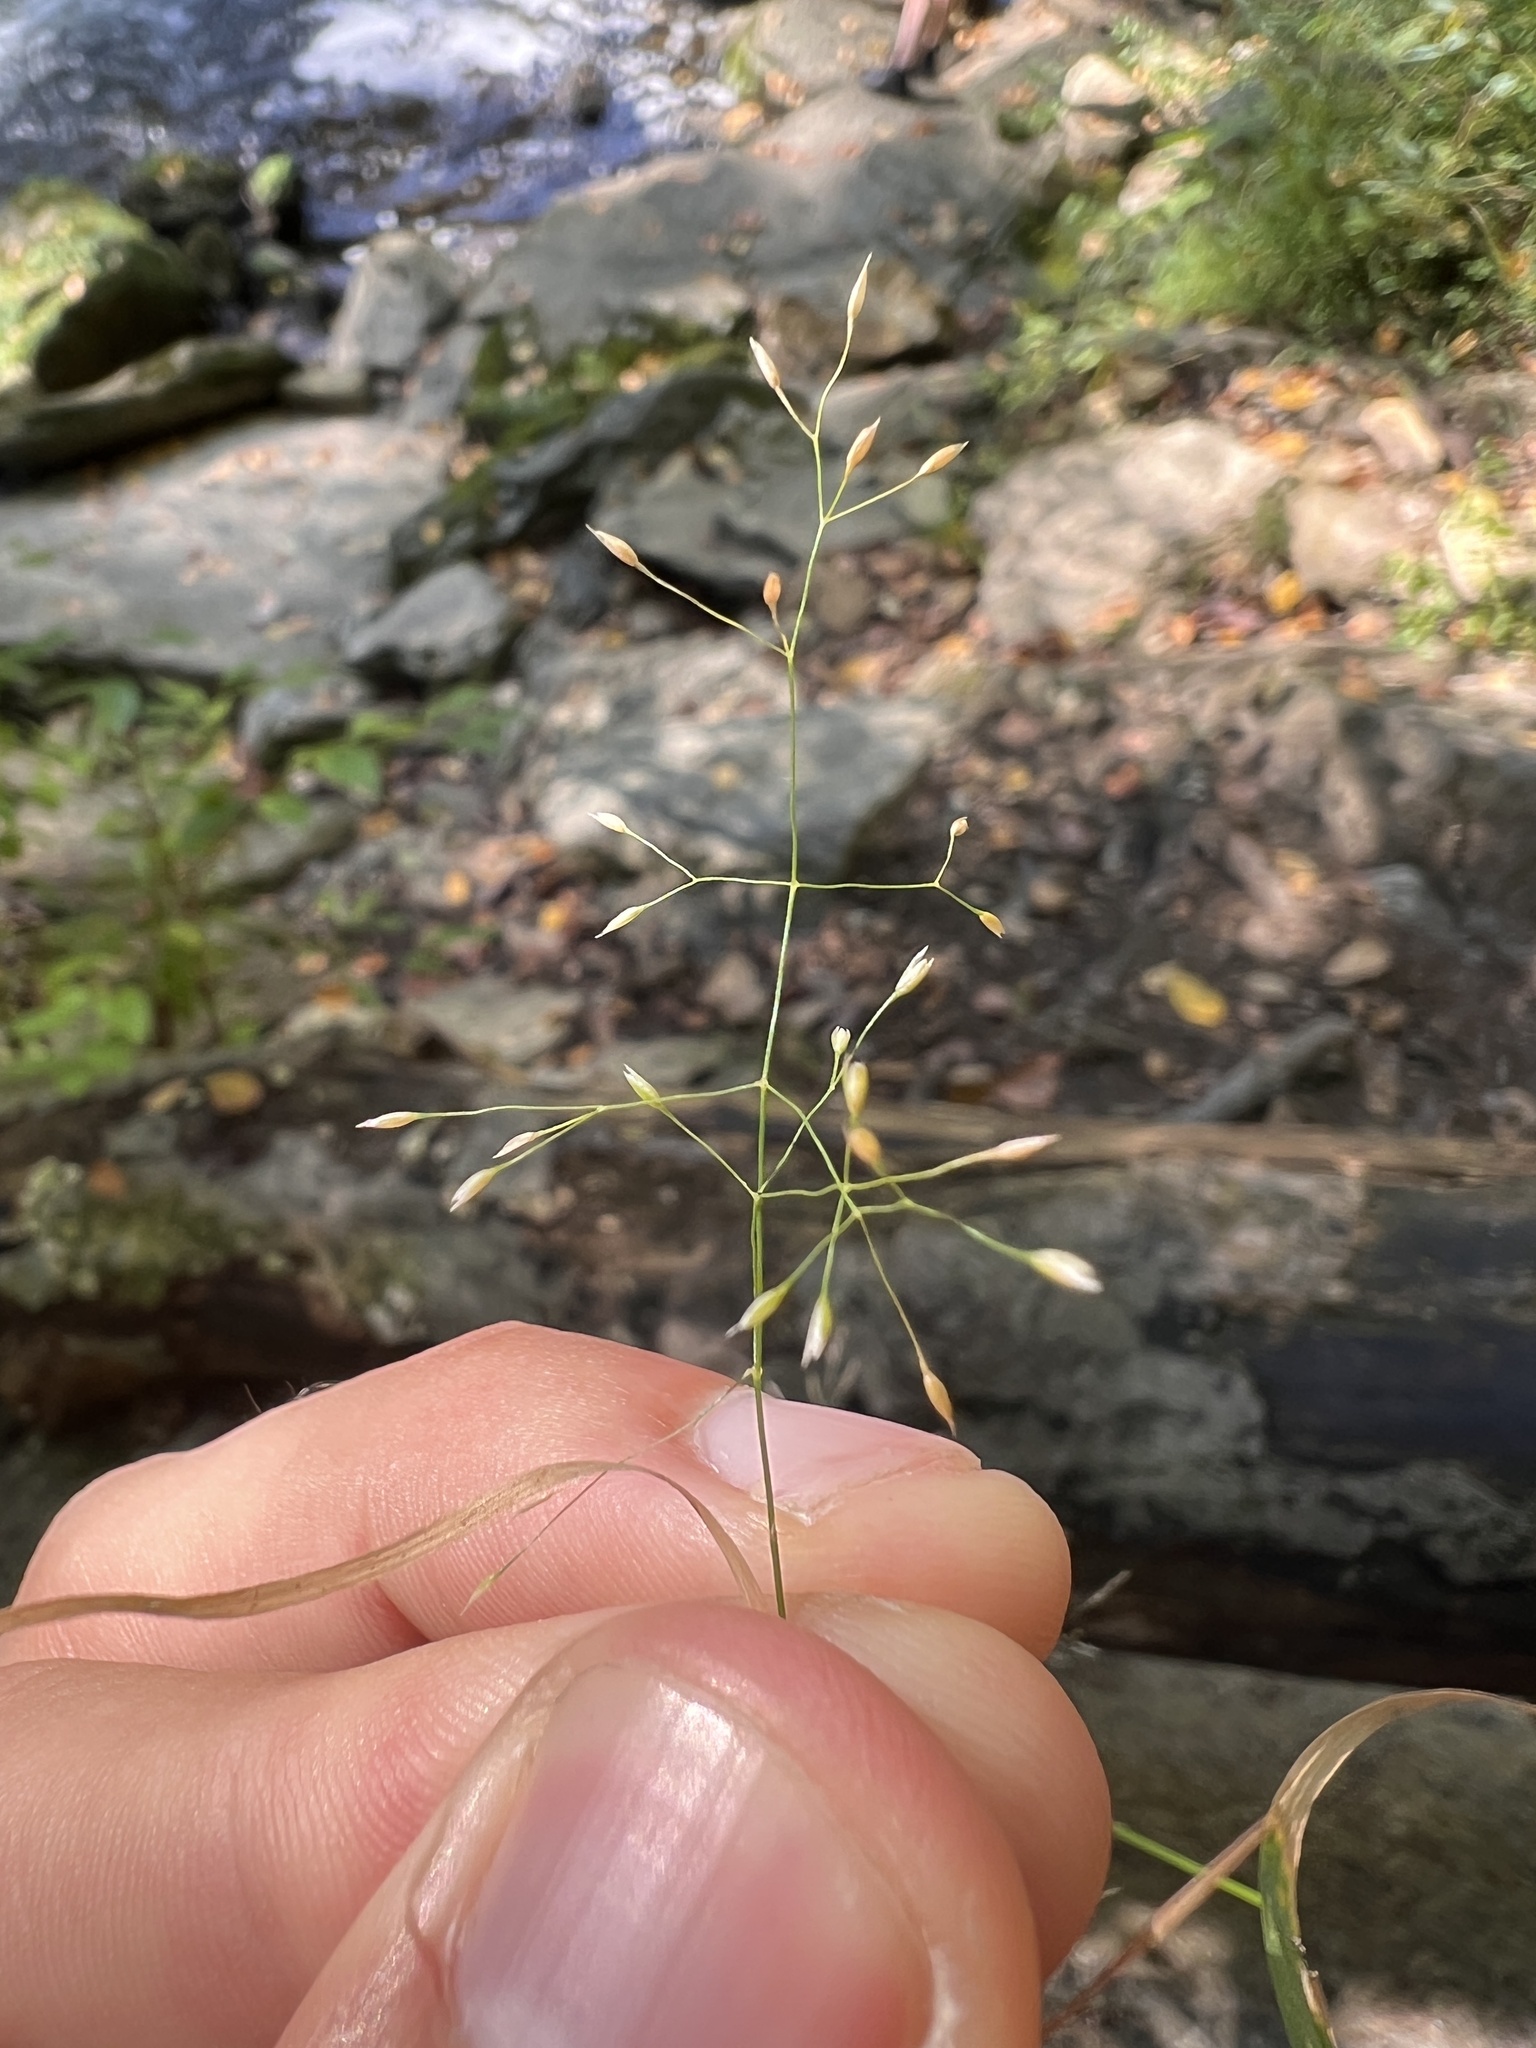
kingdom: Plantae
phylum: Tracheophyta
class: Liliopsida
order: Poales
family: Poaceae
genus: Agrostis
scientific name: Agrostis perennans
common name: Autumn bent
